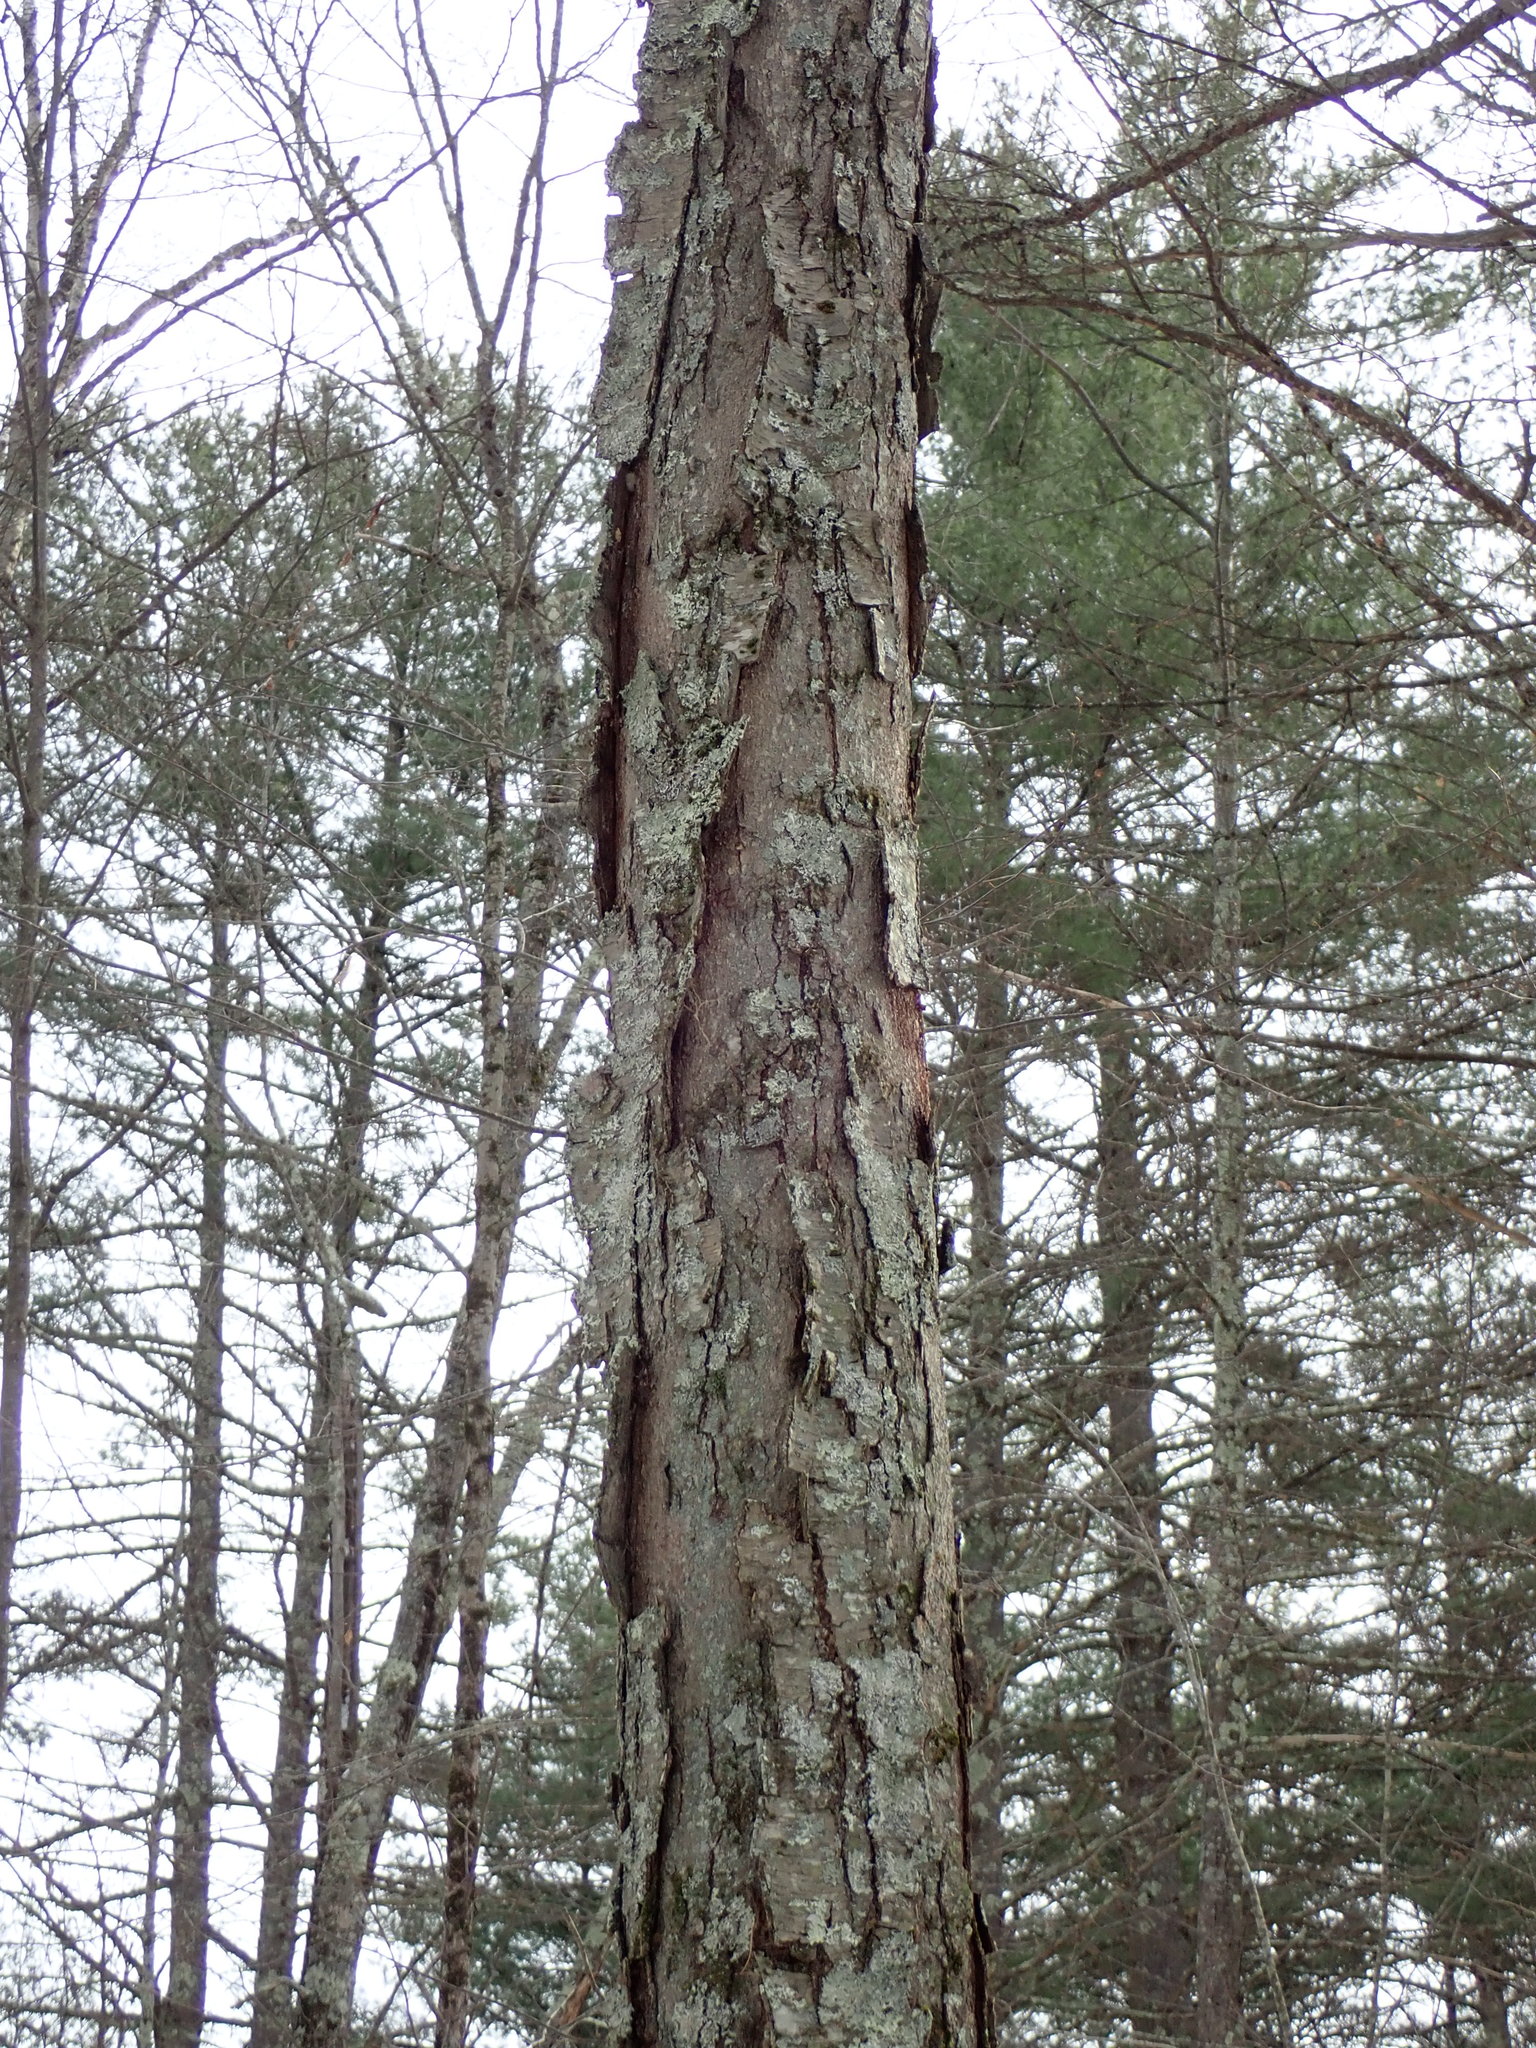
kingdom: Plantae
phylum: Tracheophyta
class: Magnoliopsida
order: Fagales
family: Betulaceae
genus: Betula
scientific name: Betula lenta
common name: Black birch
